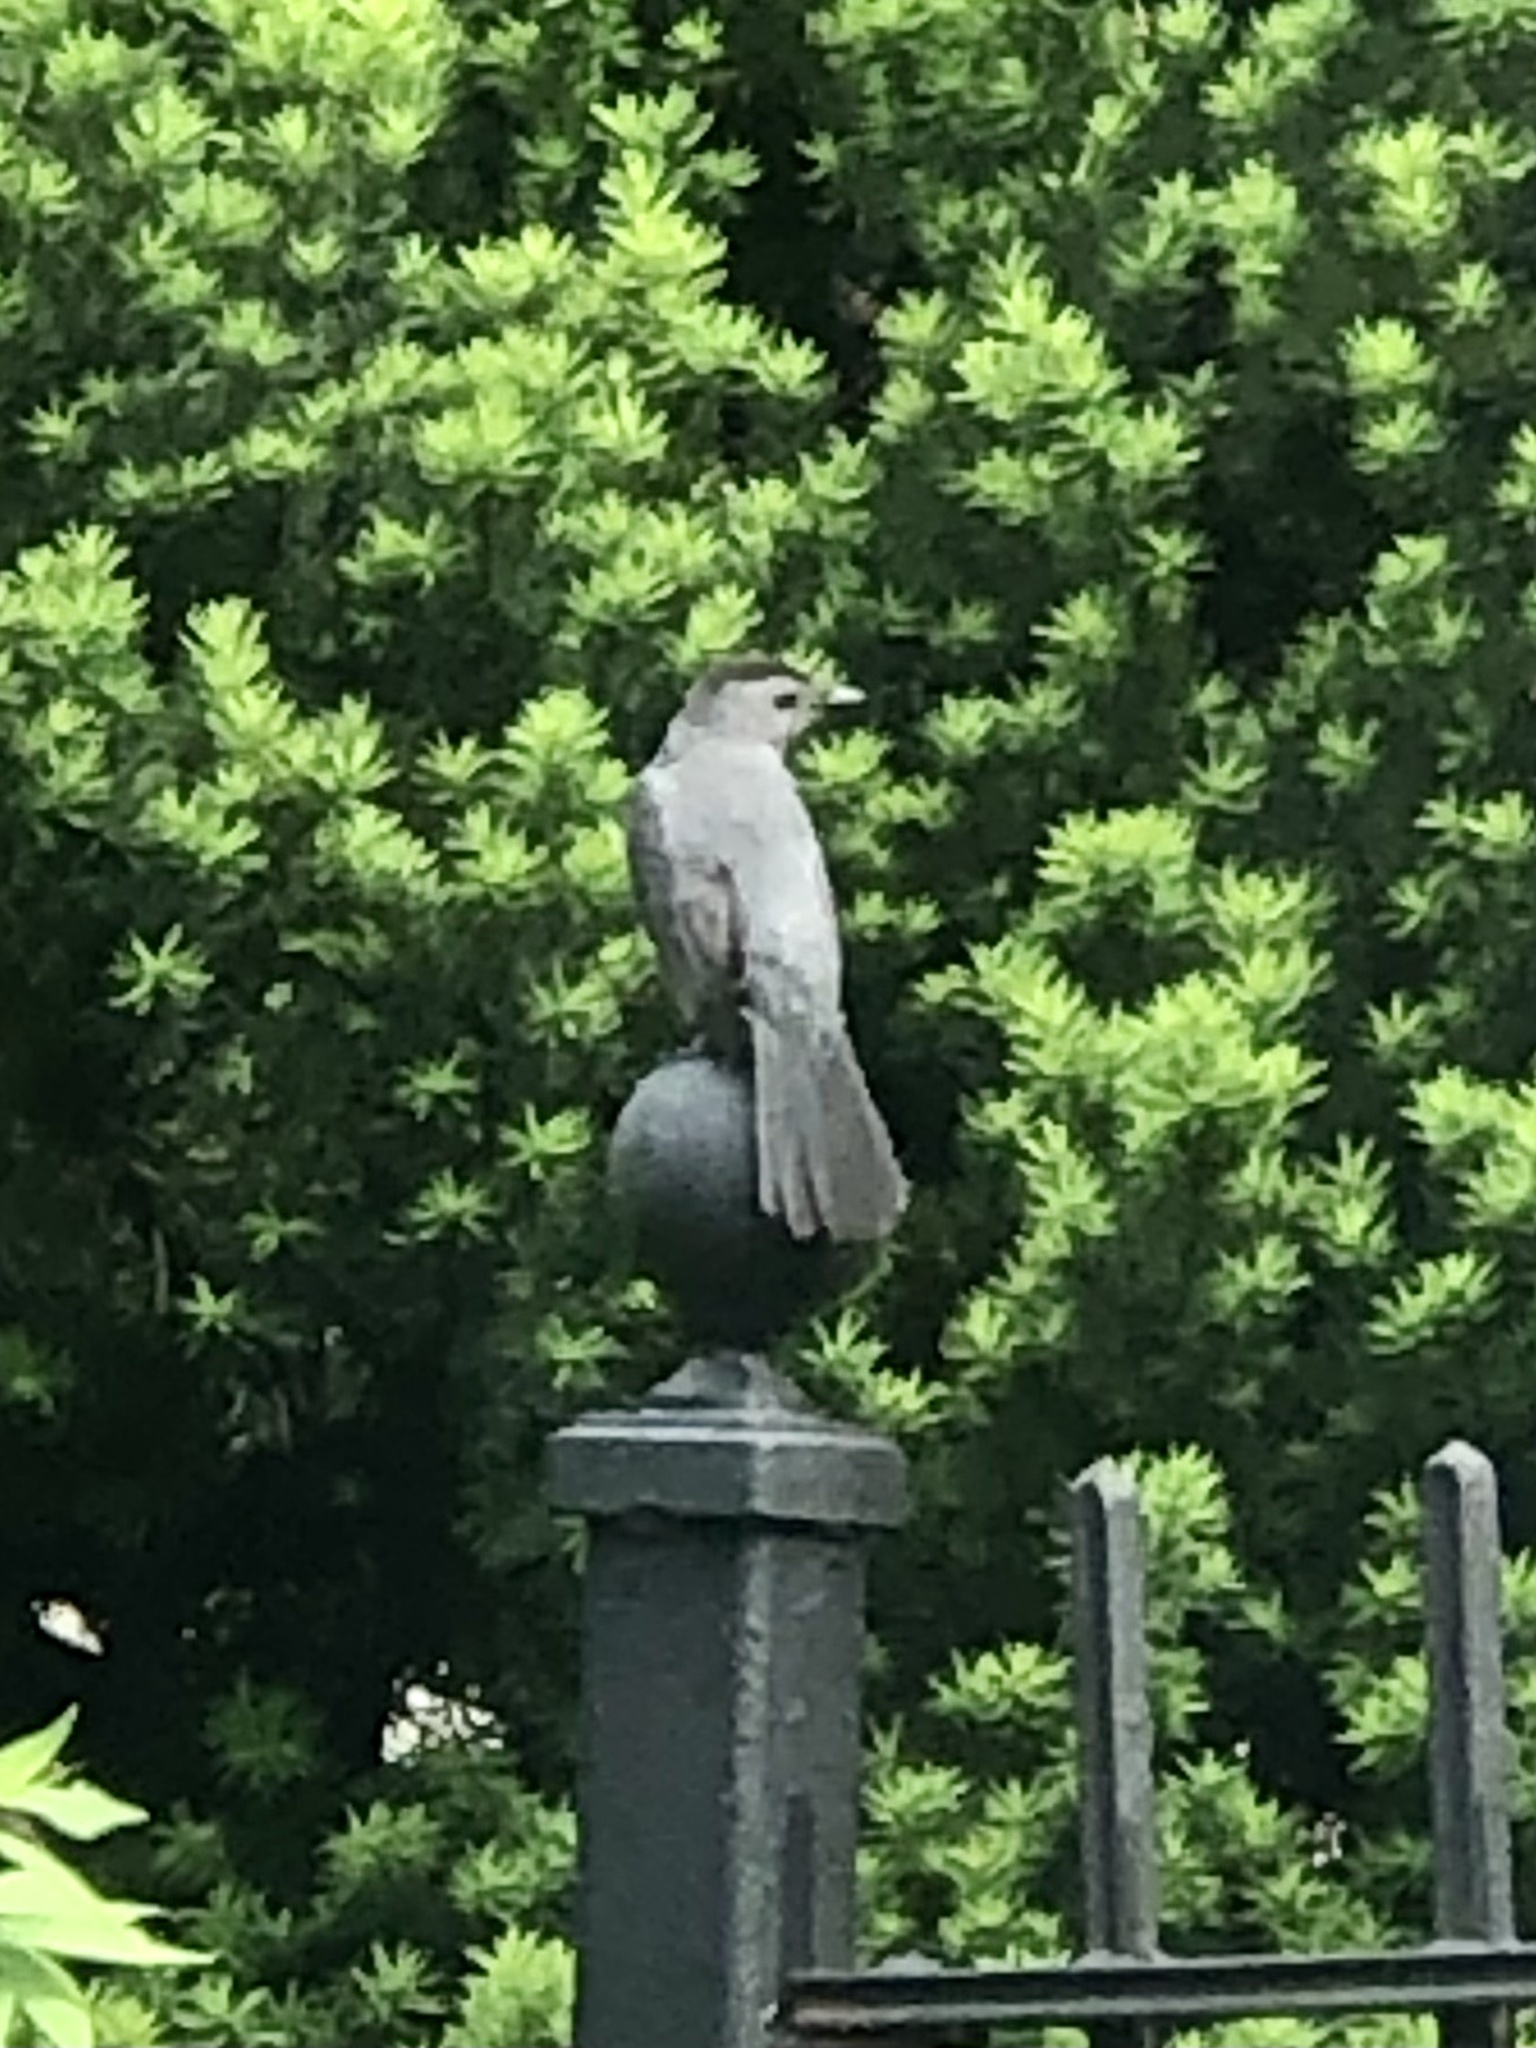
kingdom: Animalia
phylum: Chordata
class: Aves
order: Passeriformes
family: Mimidae
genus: Dumetella
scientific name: Dumetella carolinensis
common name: Gray catbird
